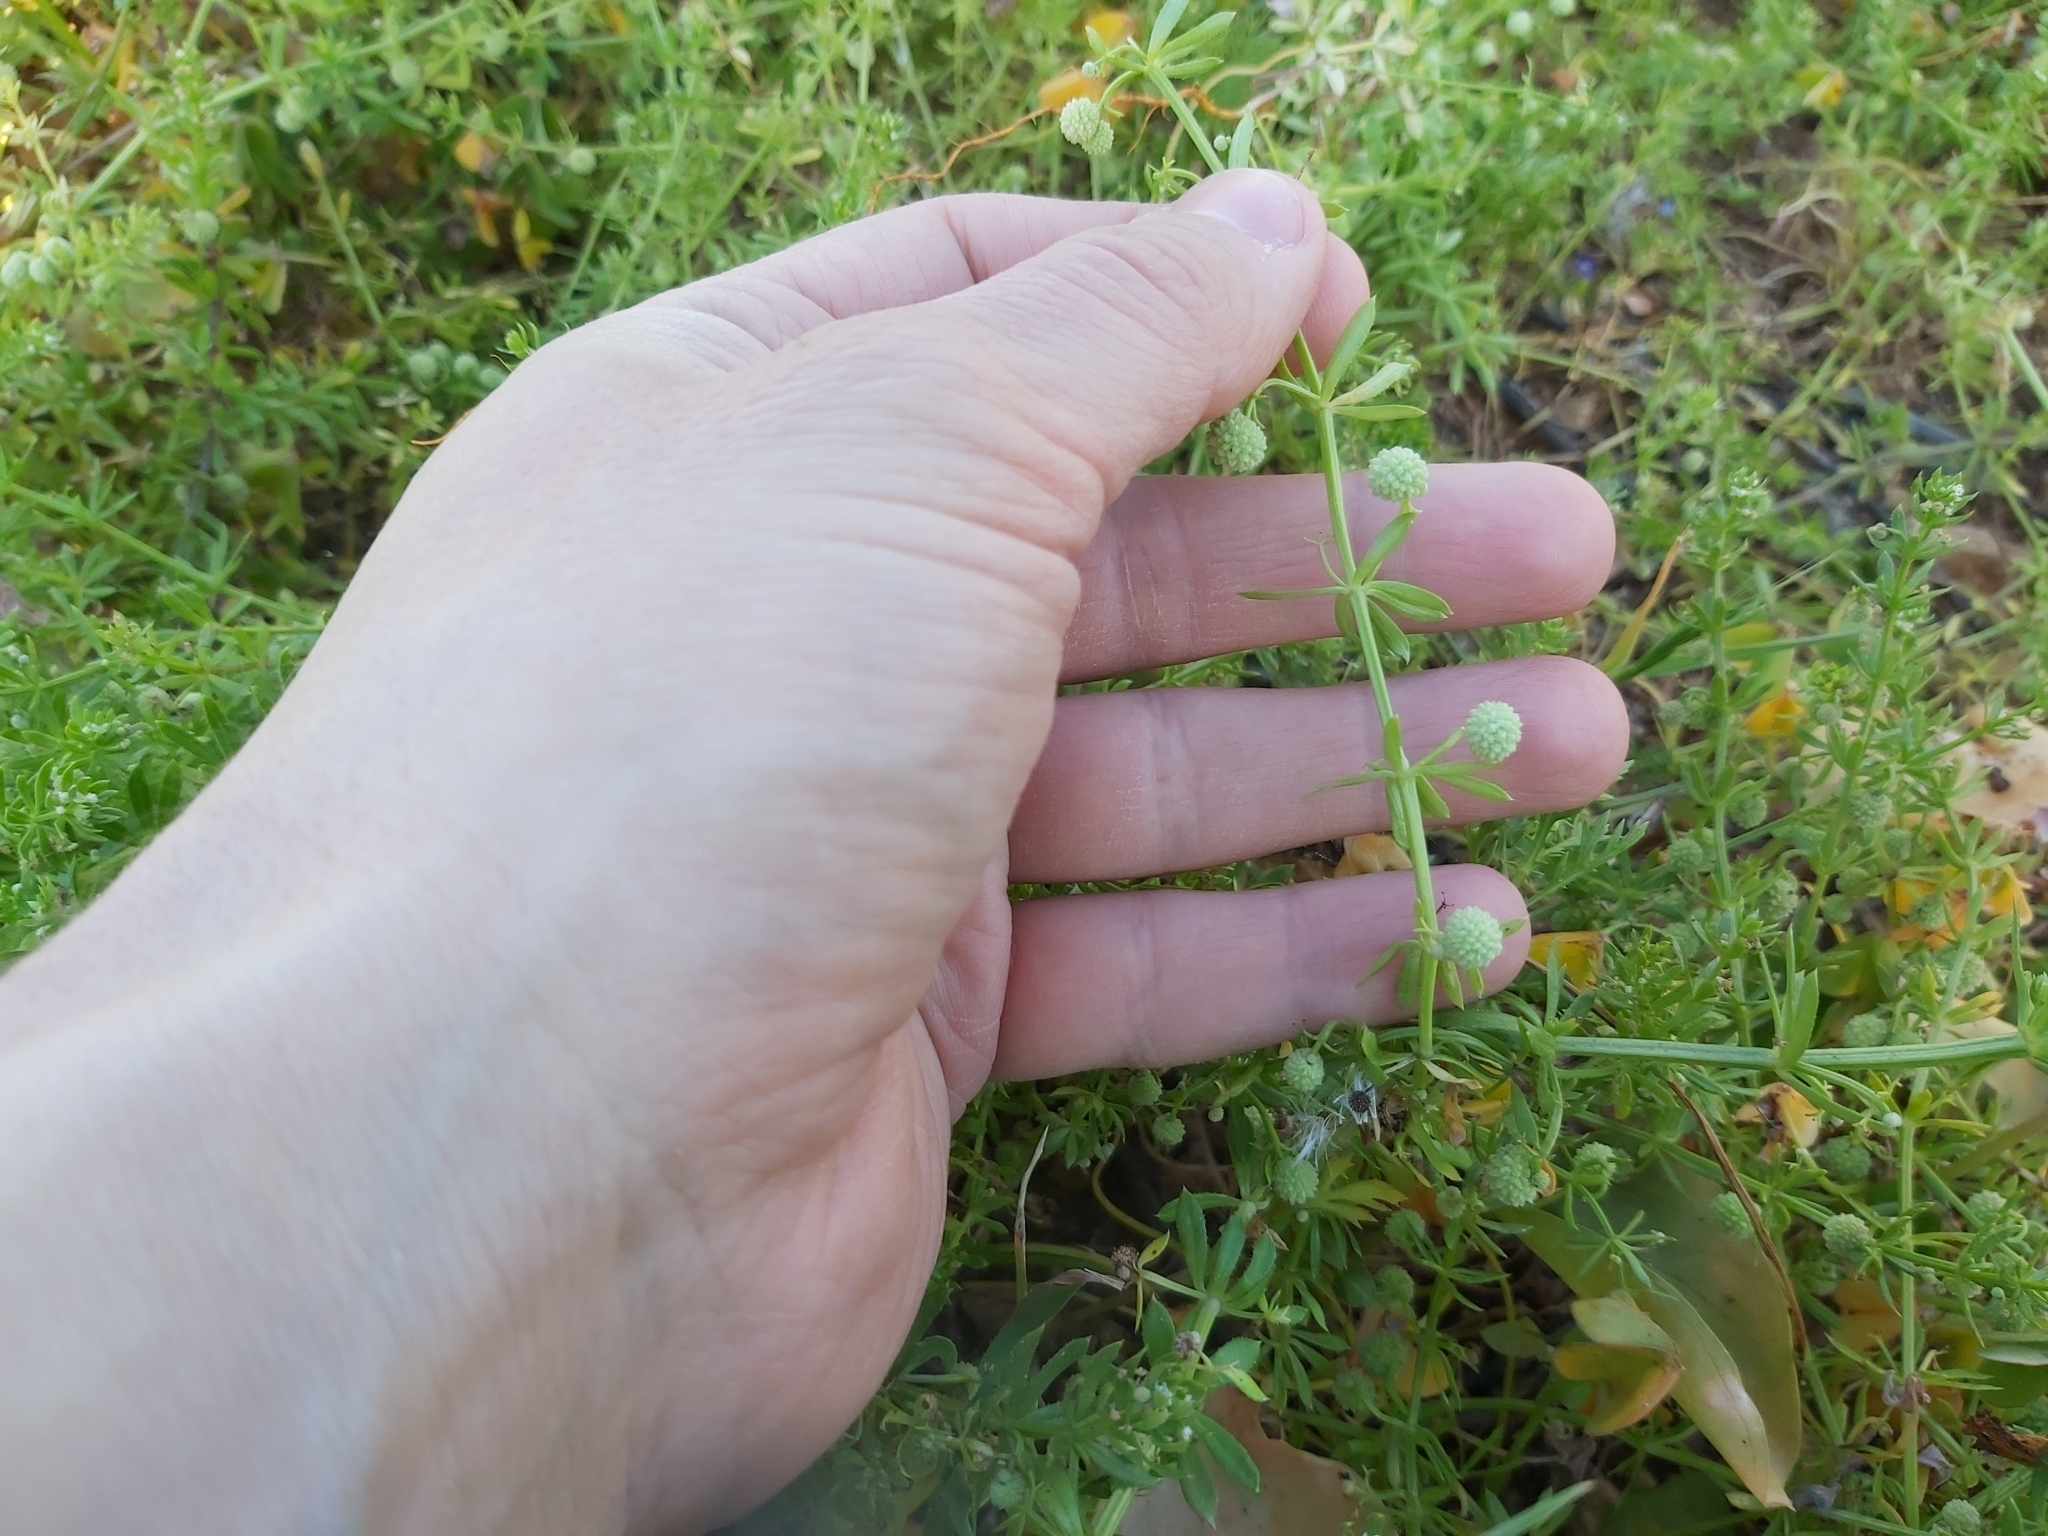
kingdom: Plantae
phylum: Tracheophyta
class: Magnoliopsida
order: Gentianales
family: Rubiaceae
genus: Galium
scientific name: Galium verrucosum
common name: Warty bedstraw
